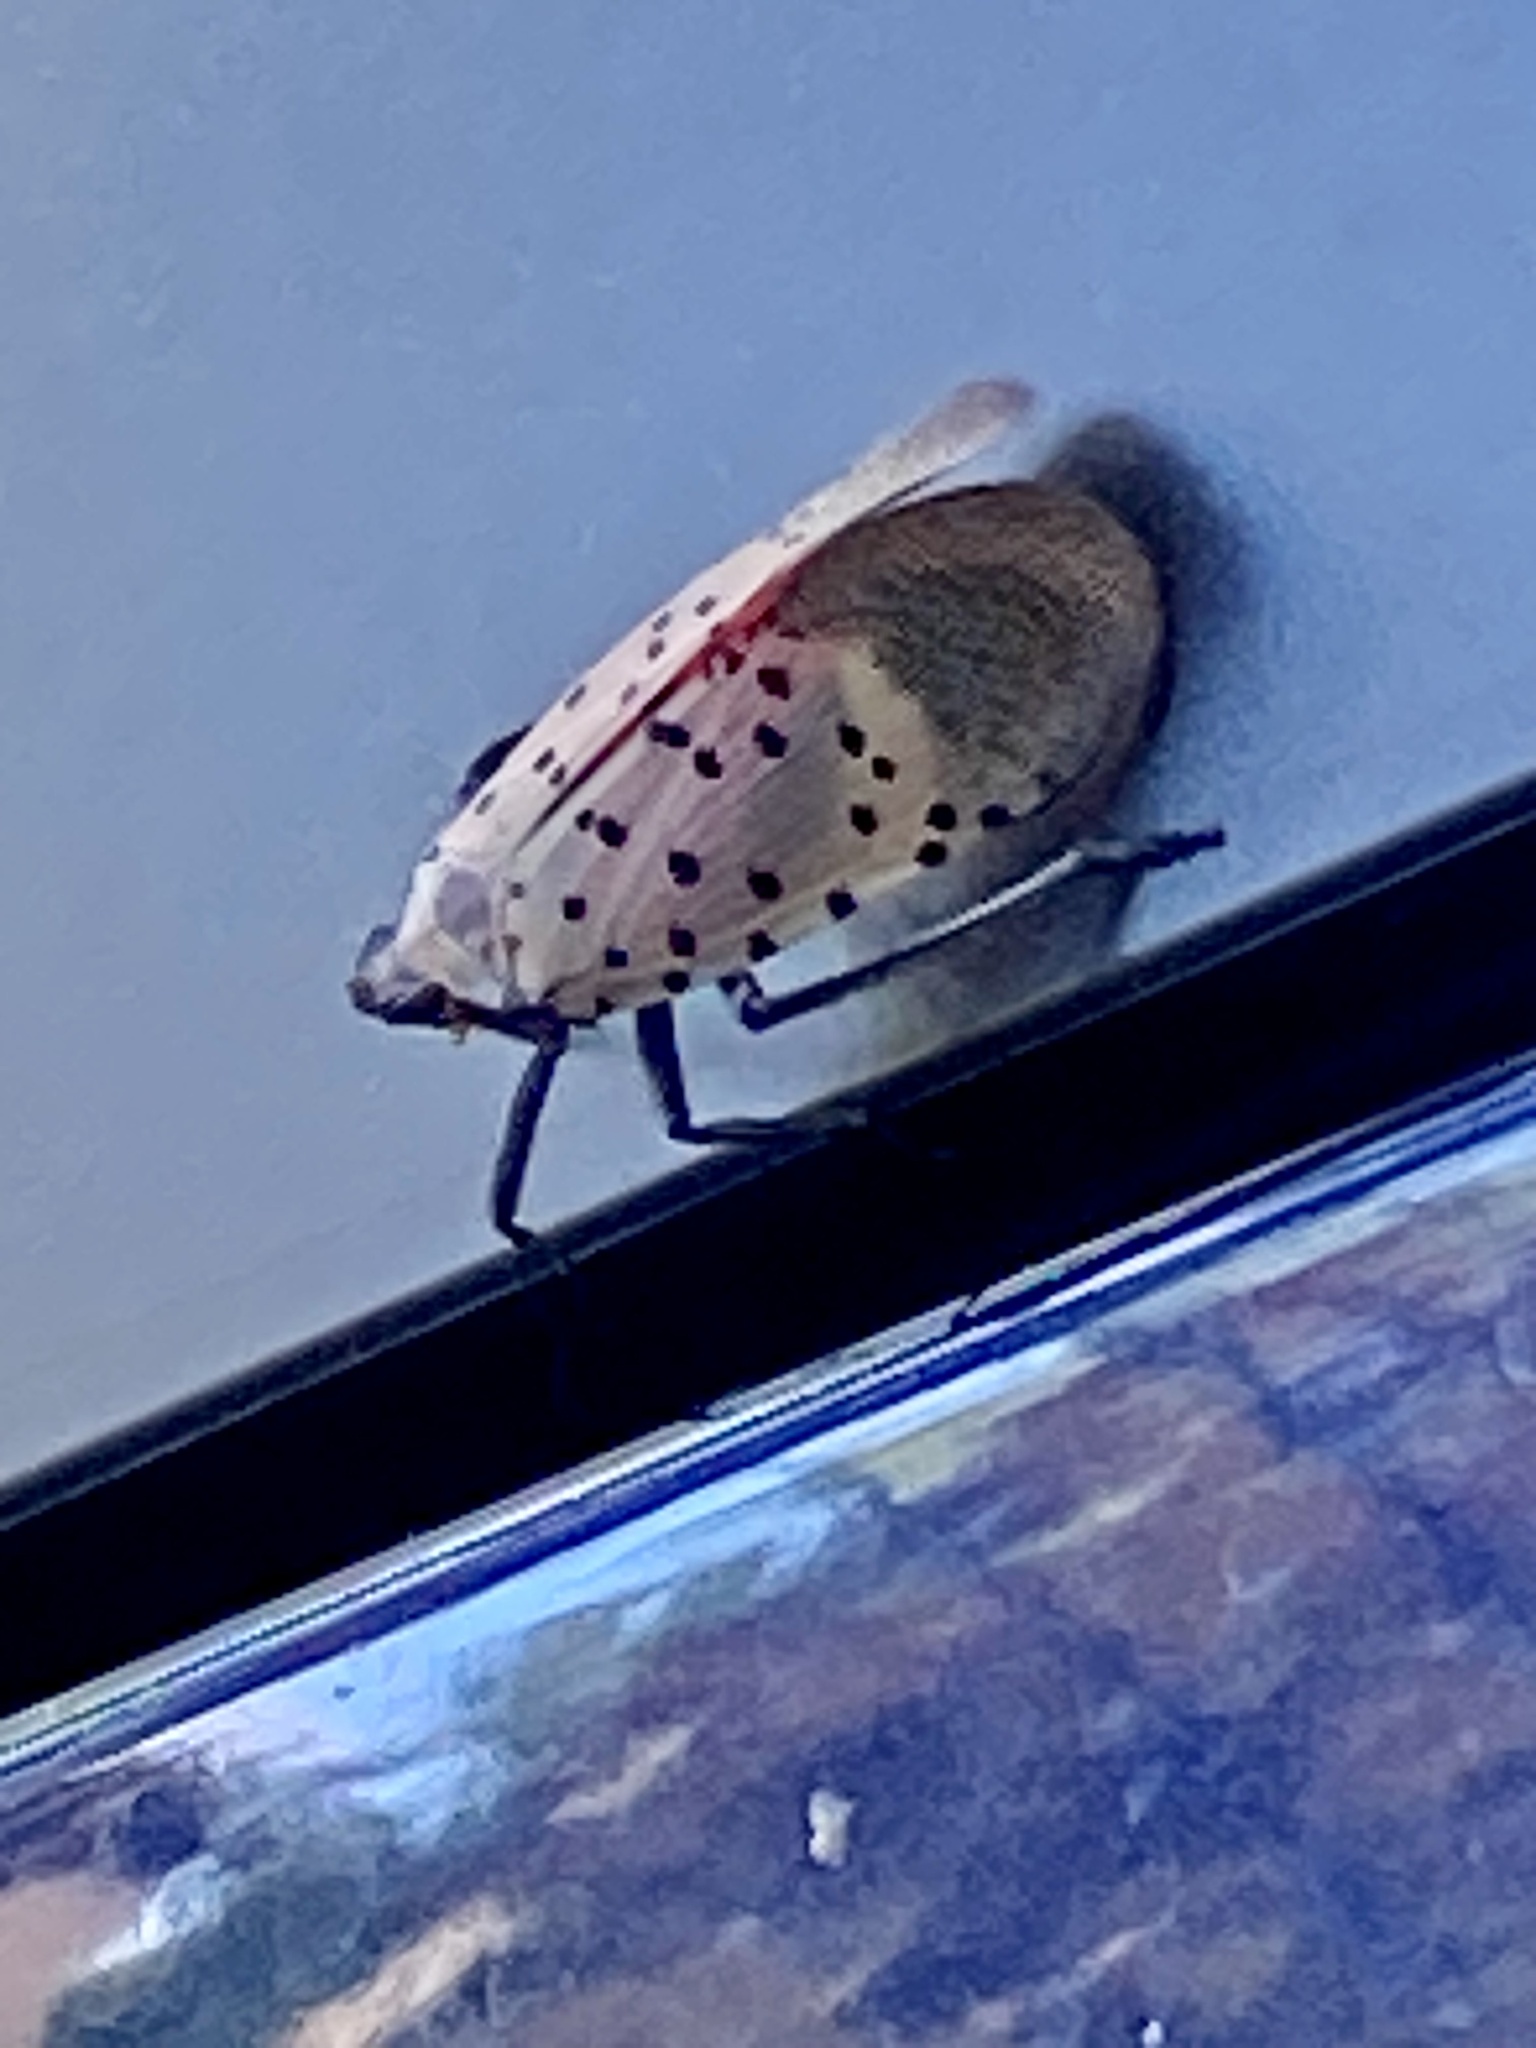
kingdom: Animalia
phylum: Arthropoda
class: Insecta
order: Hemiptera
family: Fulgoridae
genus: Lycorma
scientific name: Lycorma delicatula
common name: Spotted lanternfly
